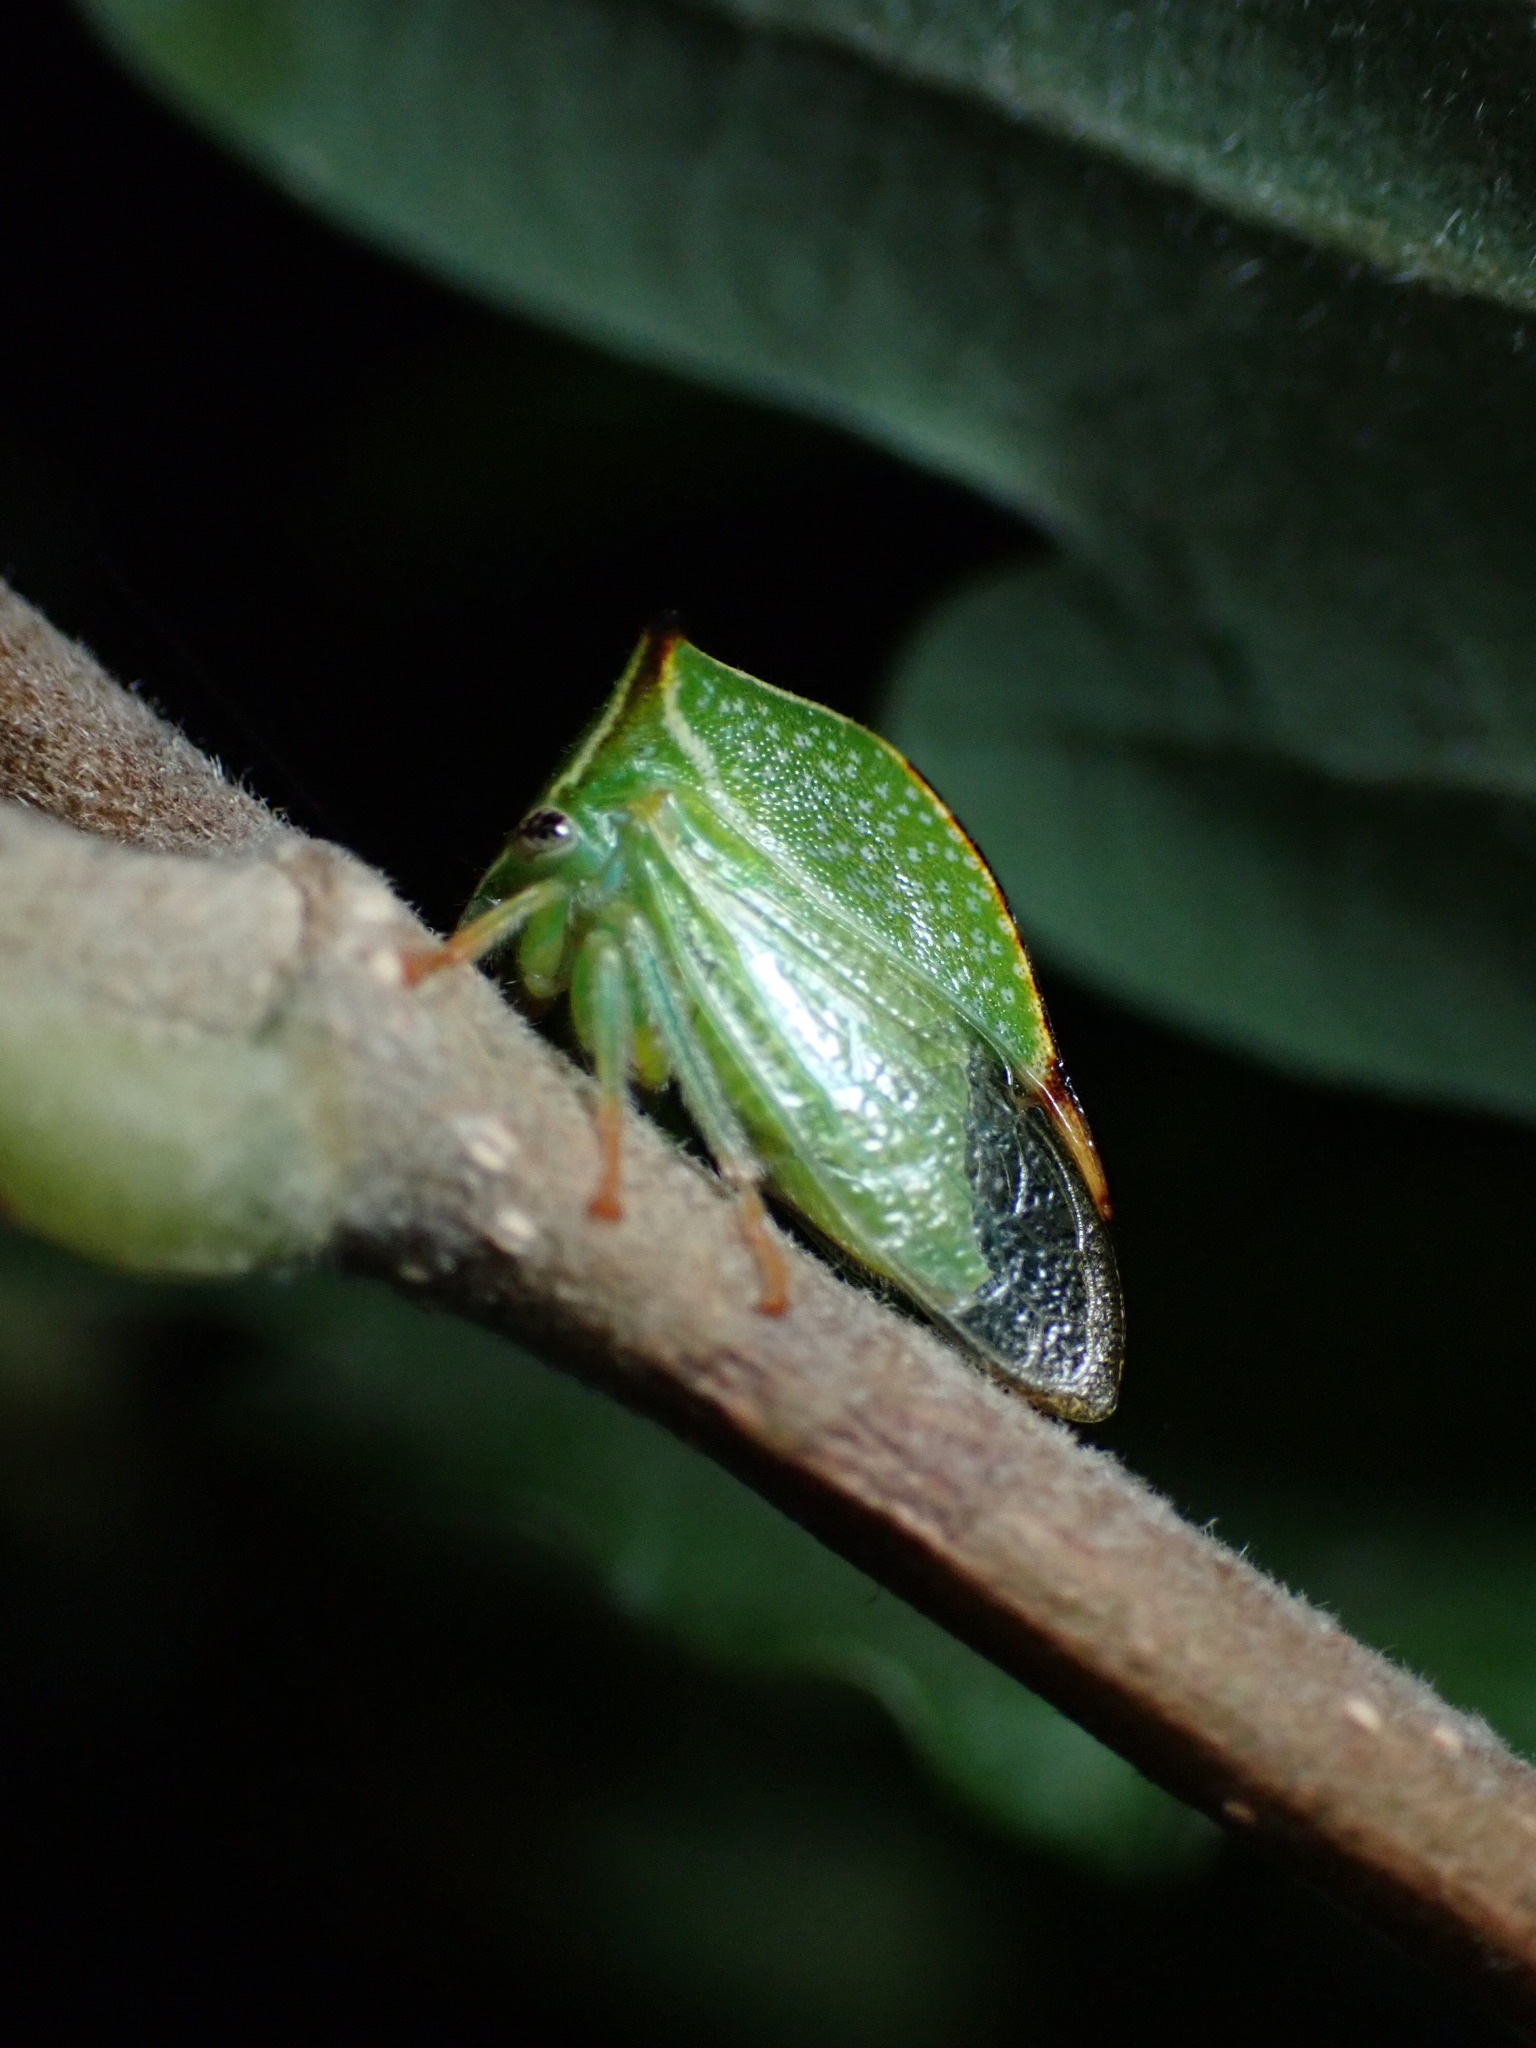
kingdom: Animalia
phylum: Arthropoda
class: Insecta
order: Hemiptera
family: Membracidae
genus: Stictocephala
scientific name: Stictocephala bisonia
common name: American buffalo treehopper
